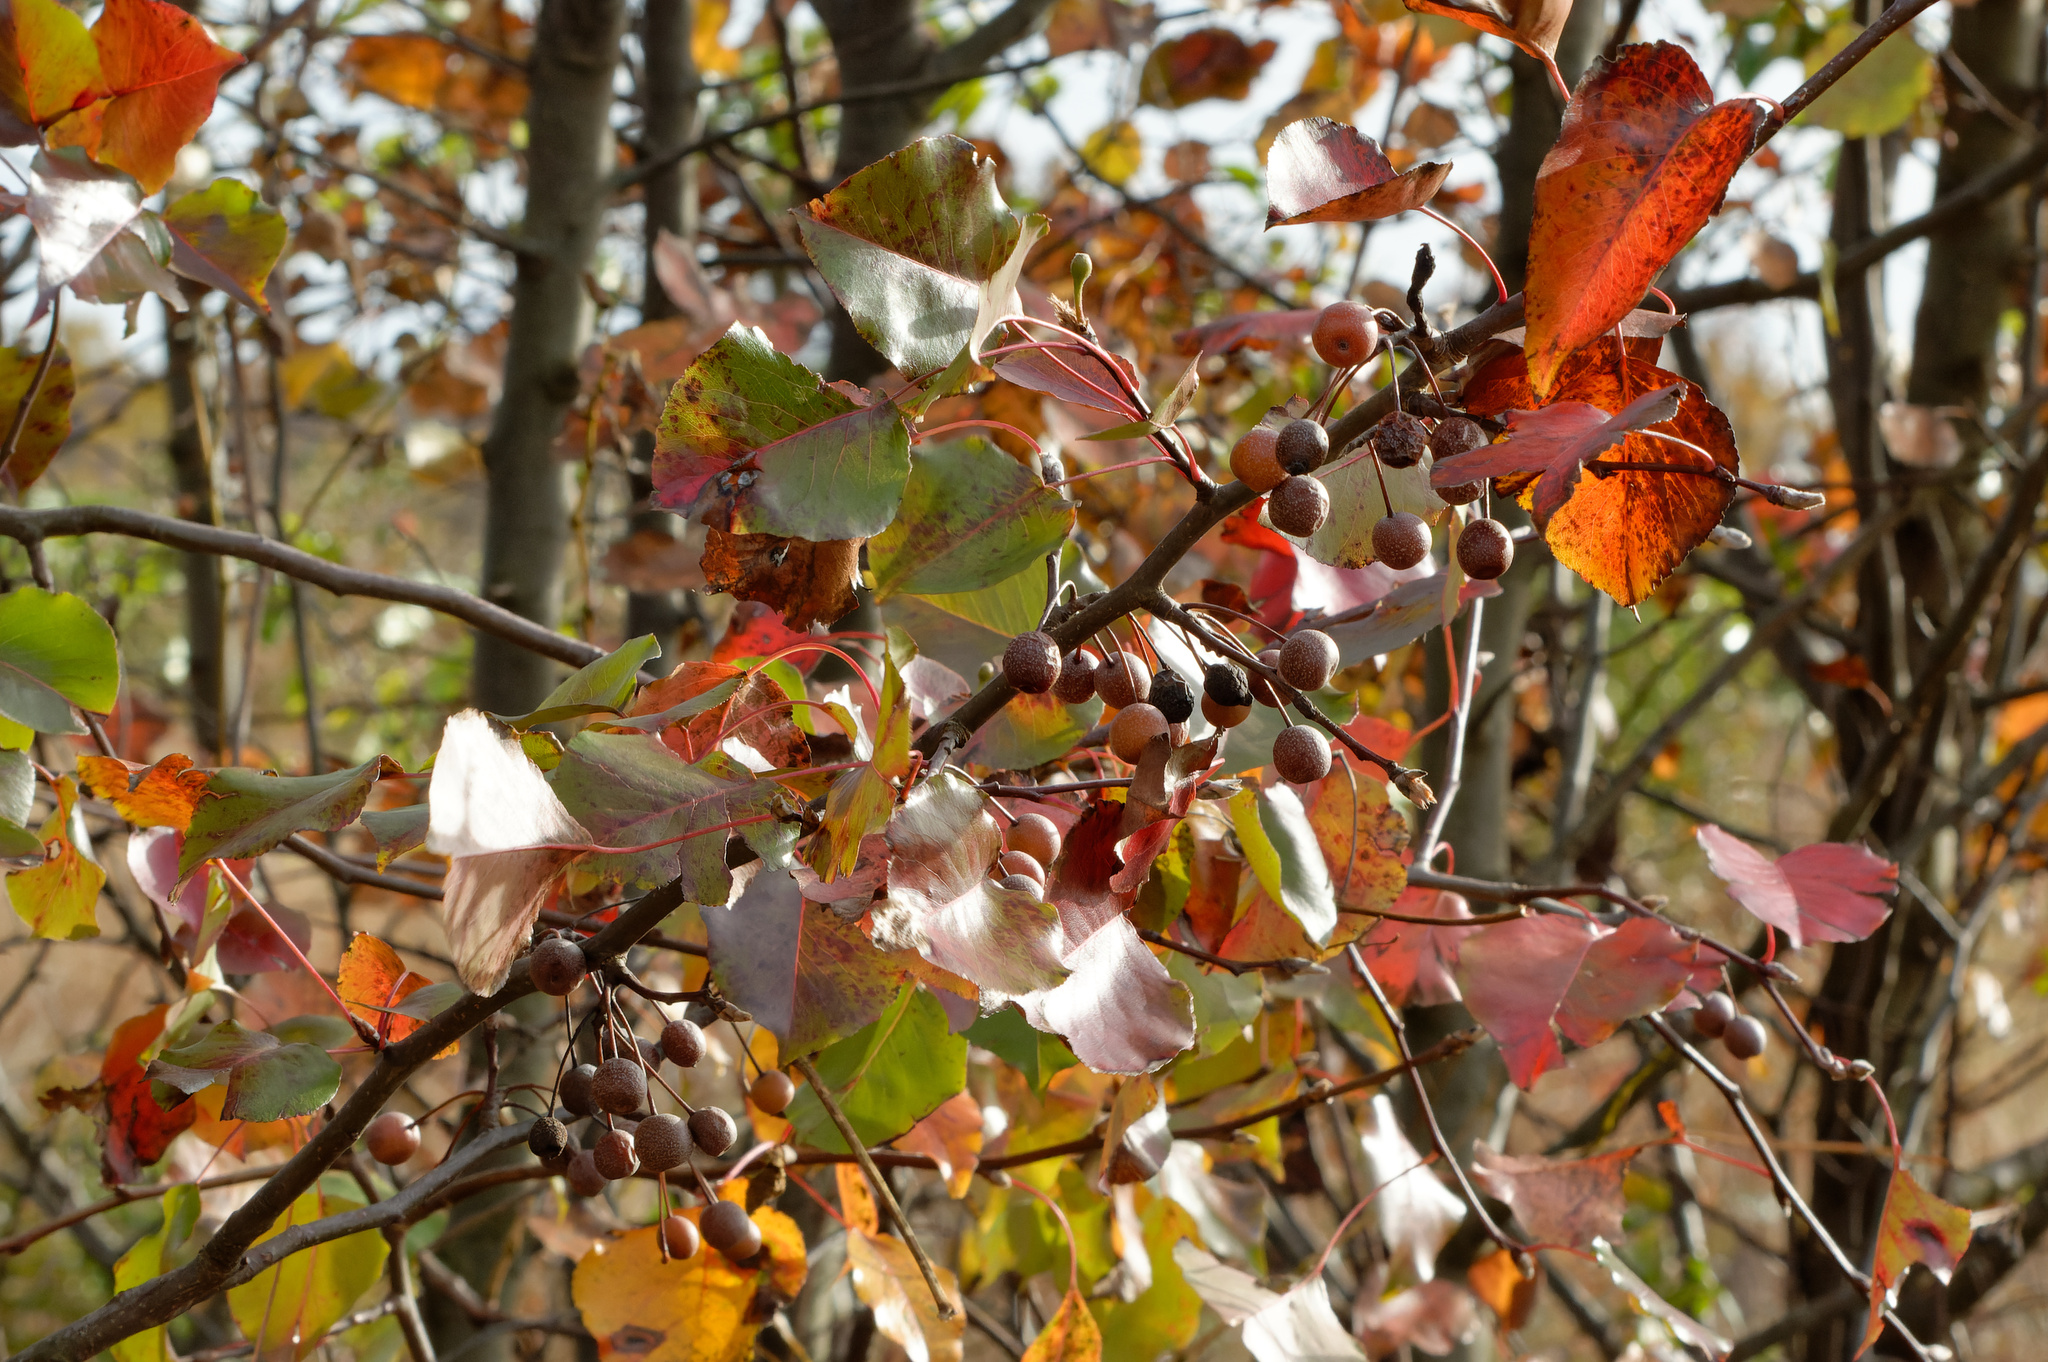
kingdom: Plantae
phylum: Tracheophyta
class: Magnoliopsida
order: Rosales
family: Rosaceae
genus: Pyrus
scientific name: Pyrus calleryana
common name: Callery pear
